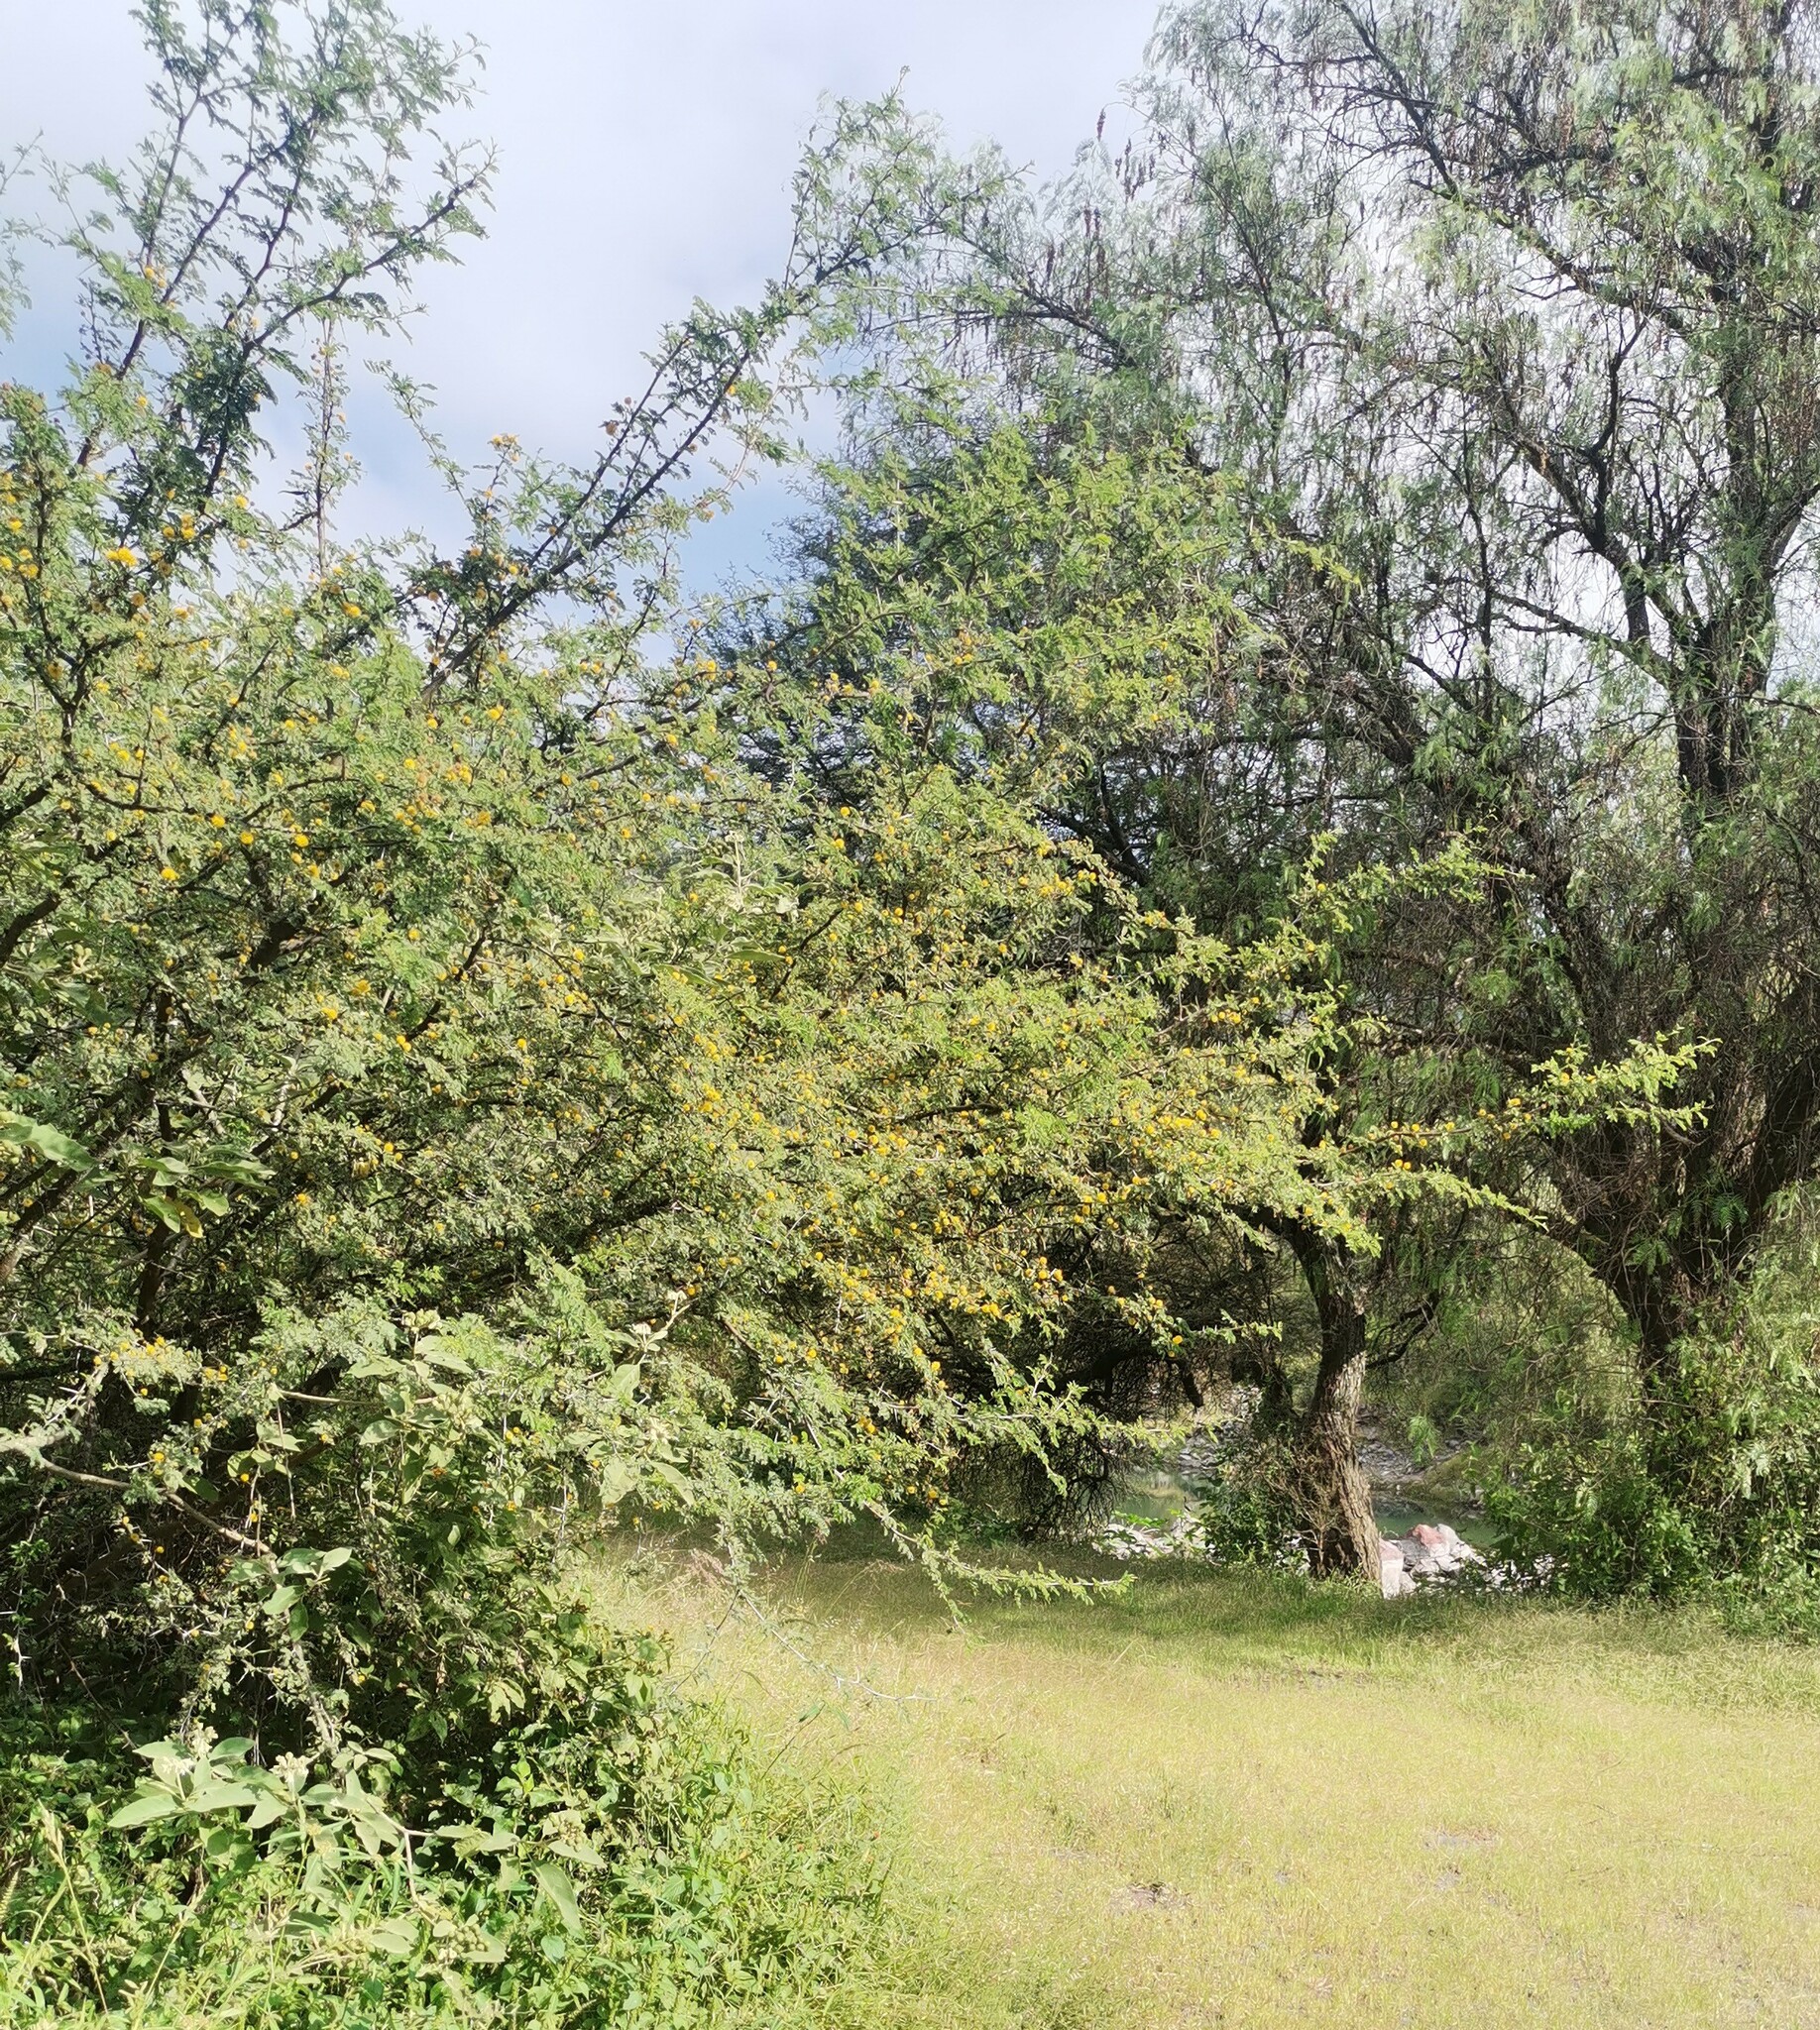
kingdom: Plantae
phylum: Tracheophyta
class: Magnoliopsida
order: Fabales
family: Fabaceae
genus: Vachellia
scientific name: Vachellia farnesiana
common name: Sweet acacia
